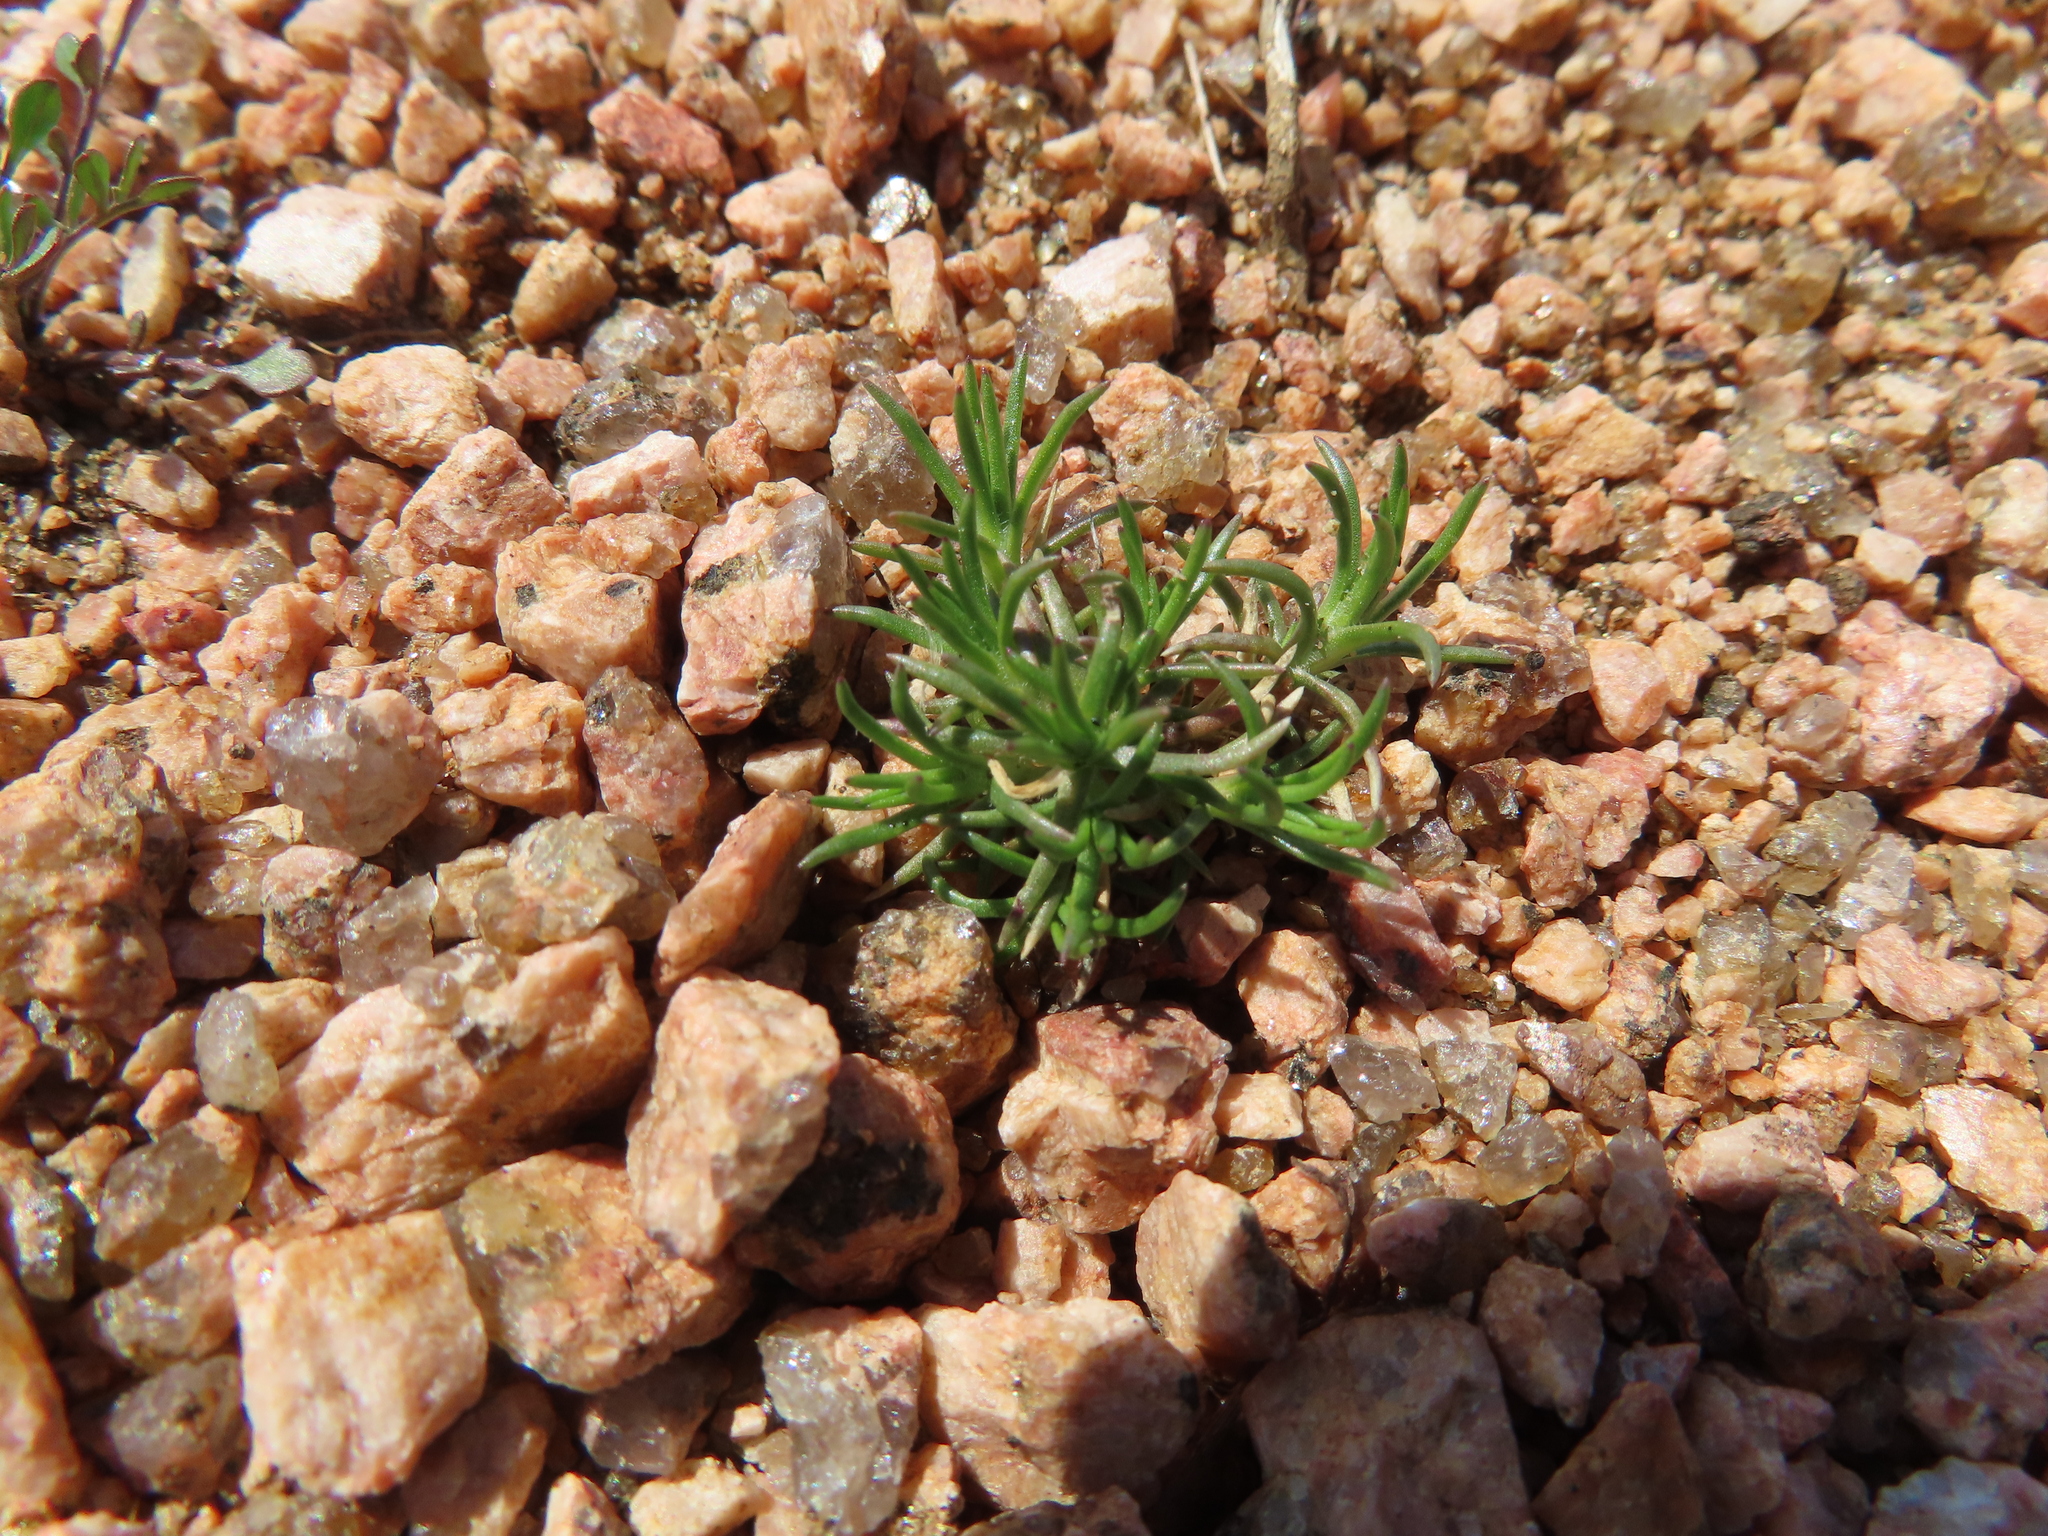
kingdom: Plantae
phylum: Tracheophyta
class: Magnoliopsida
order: Caryophyllales
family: Caryophyllaceae
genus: Scleranthus
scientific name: Scleranthus annuus
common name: Annual knawel
